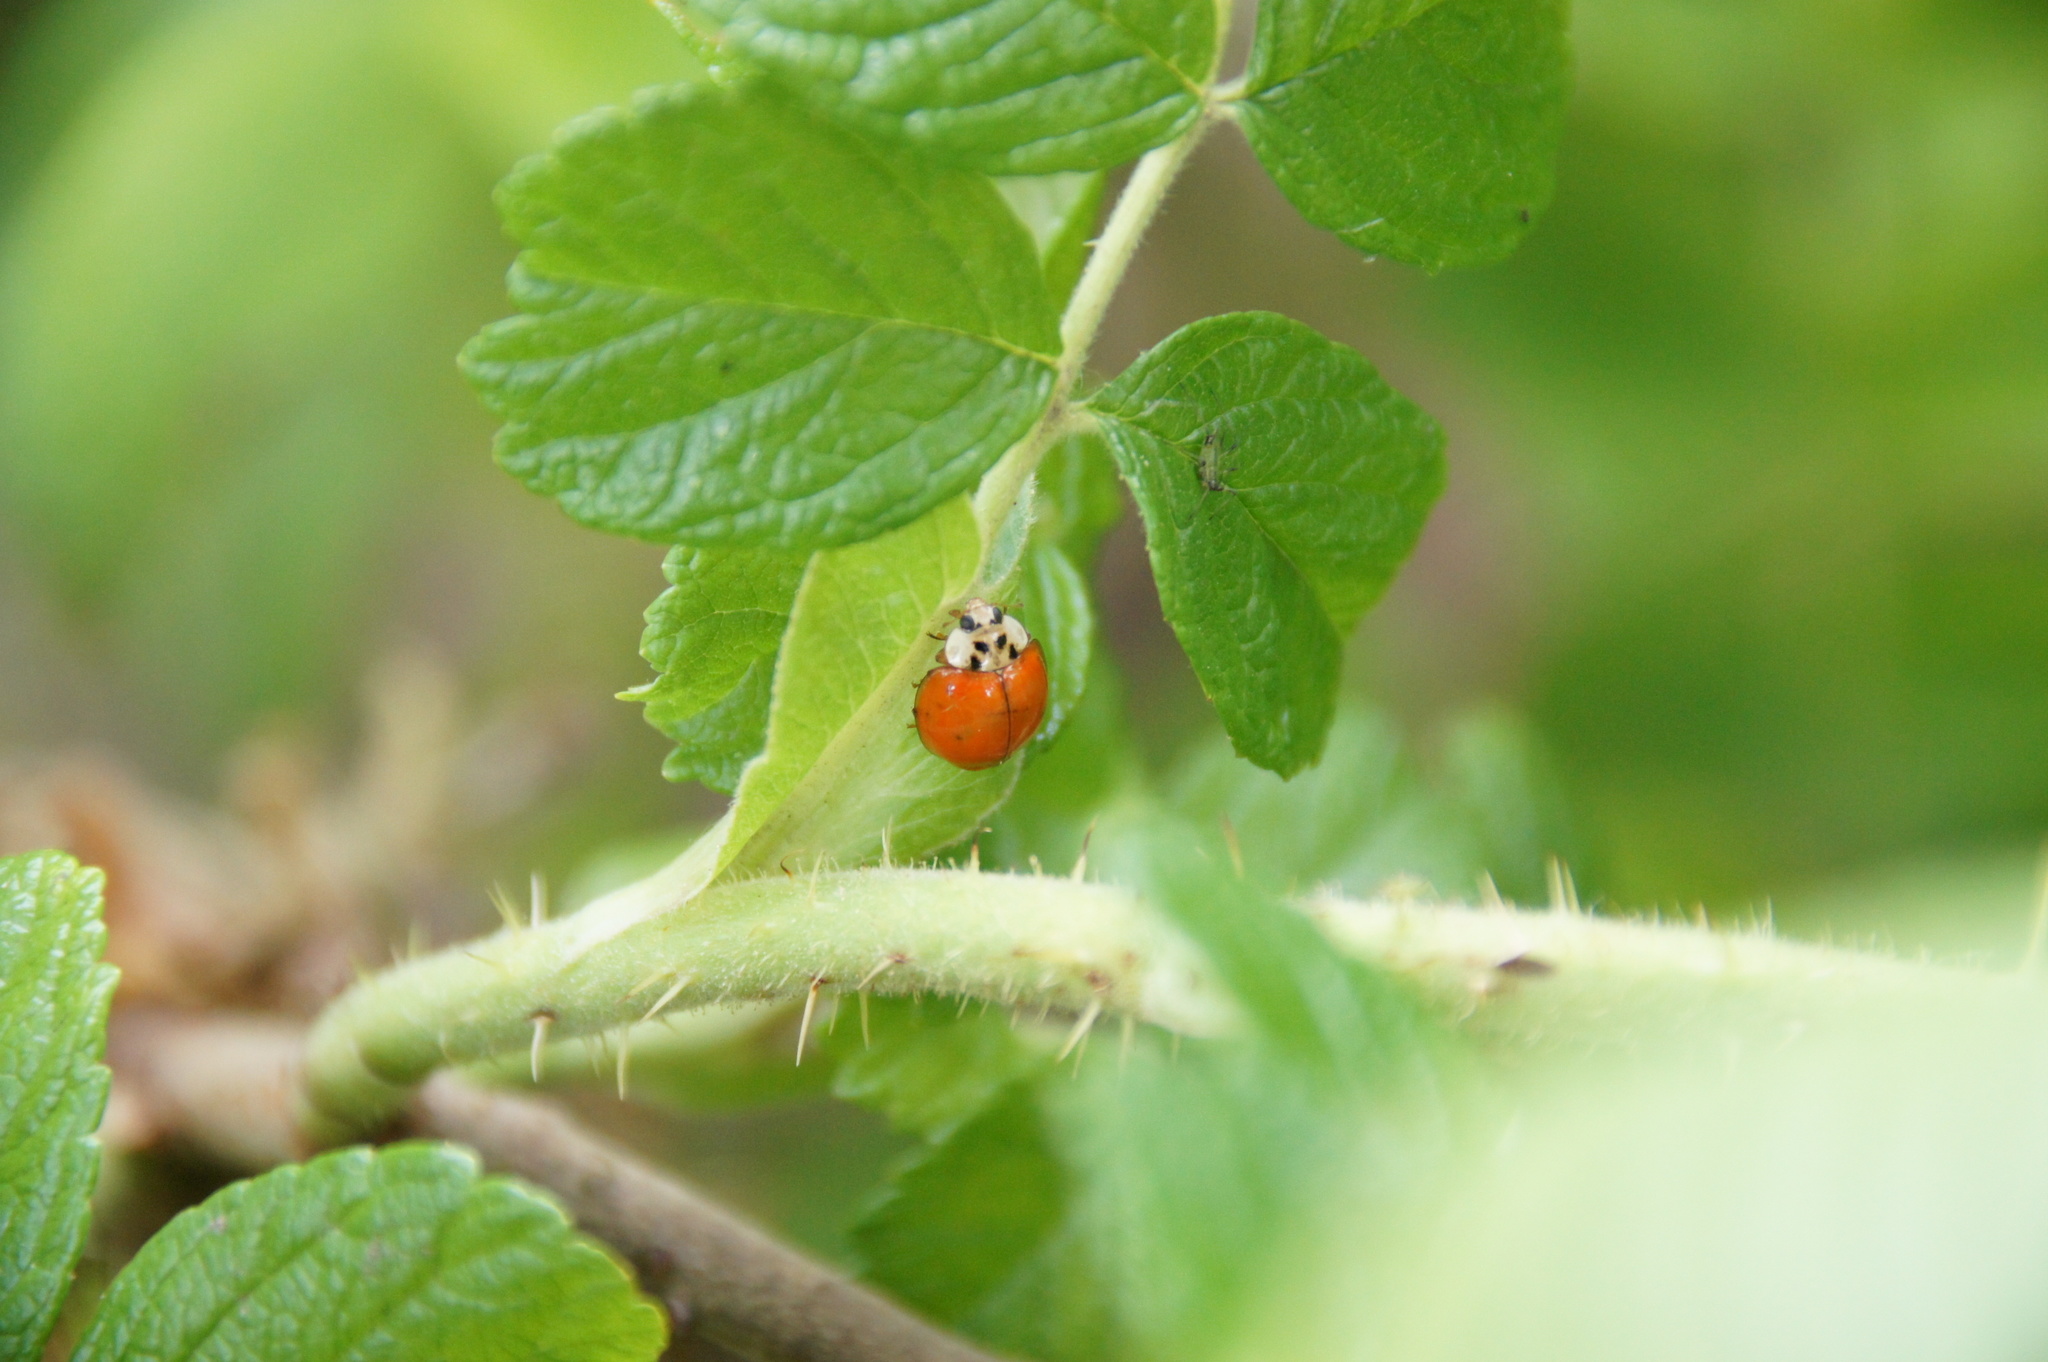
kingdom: Animalia
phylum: Arthropoda
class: Insecta
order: Coleoptera
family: Coccinellidae
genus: Harmonia
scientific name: Harmonia axyridis
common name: Harlequin ladybird
